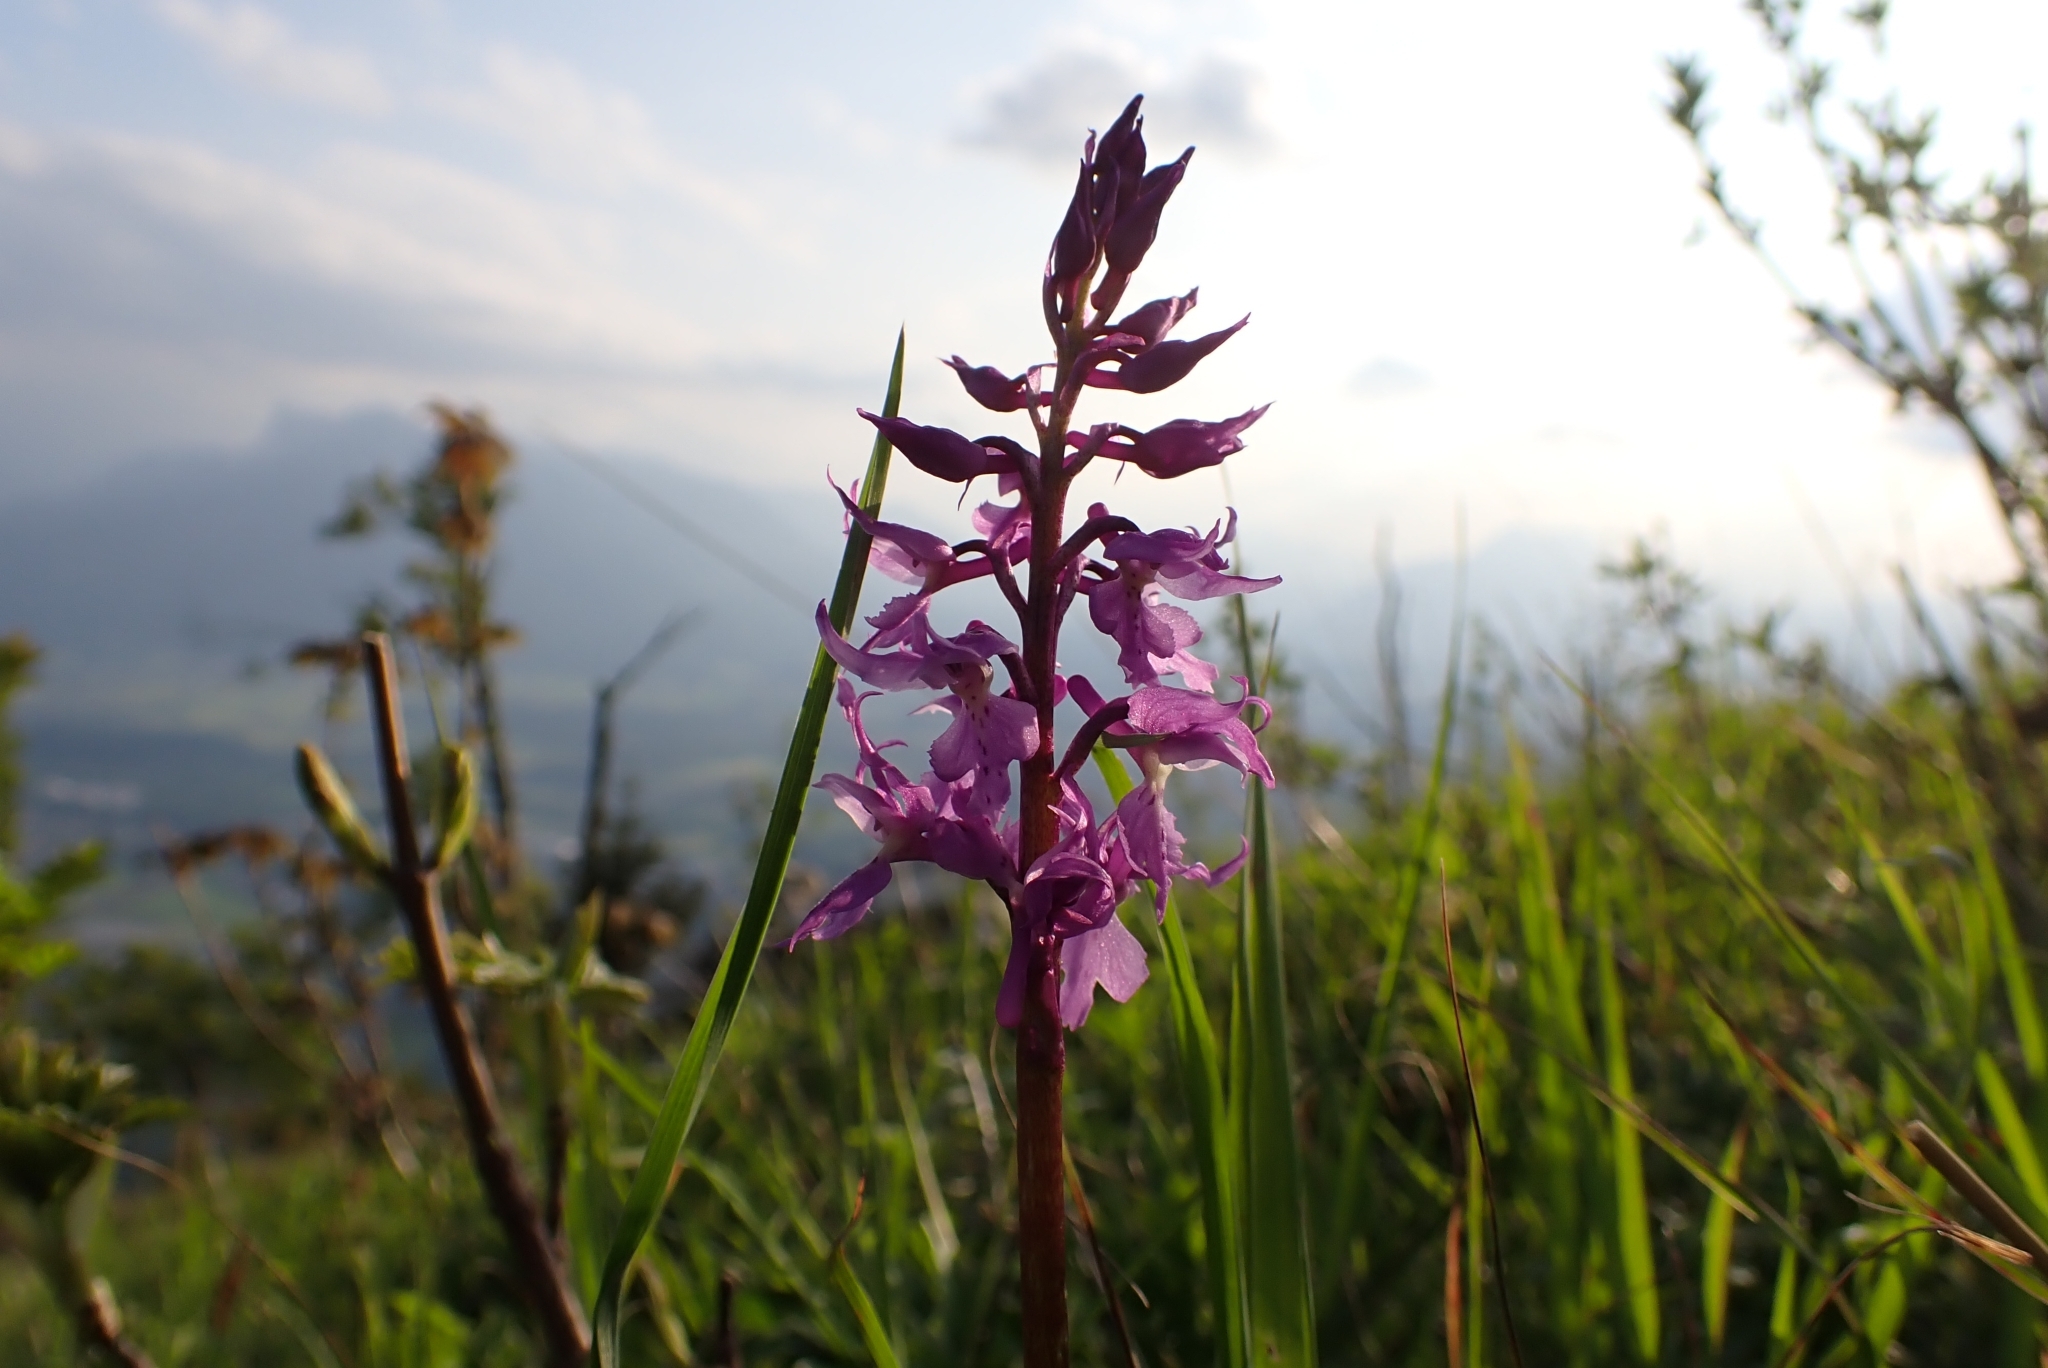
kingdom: Plantae
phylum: Tracheophyta
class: Liliopsida
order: Asparagales
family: Orchidaceae
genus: Orchis
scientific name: Orchis mascula
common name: Early-purple orchid
